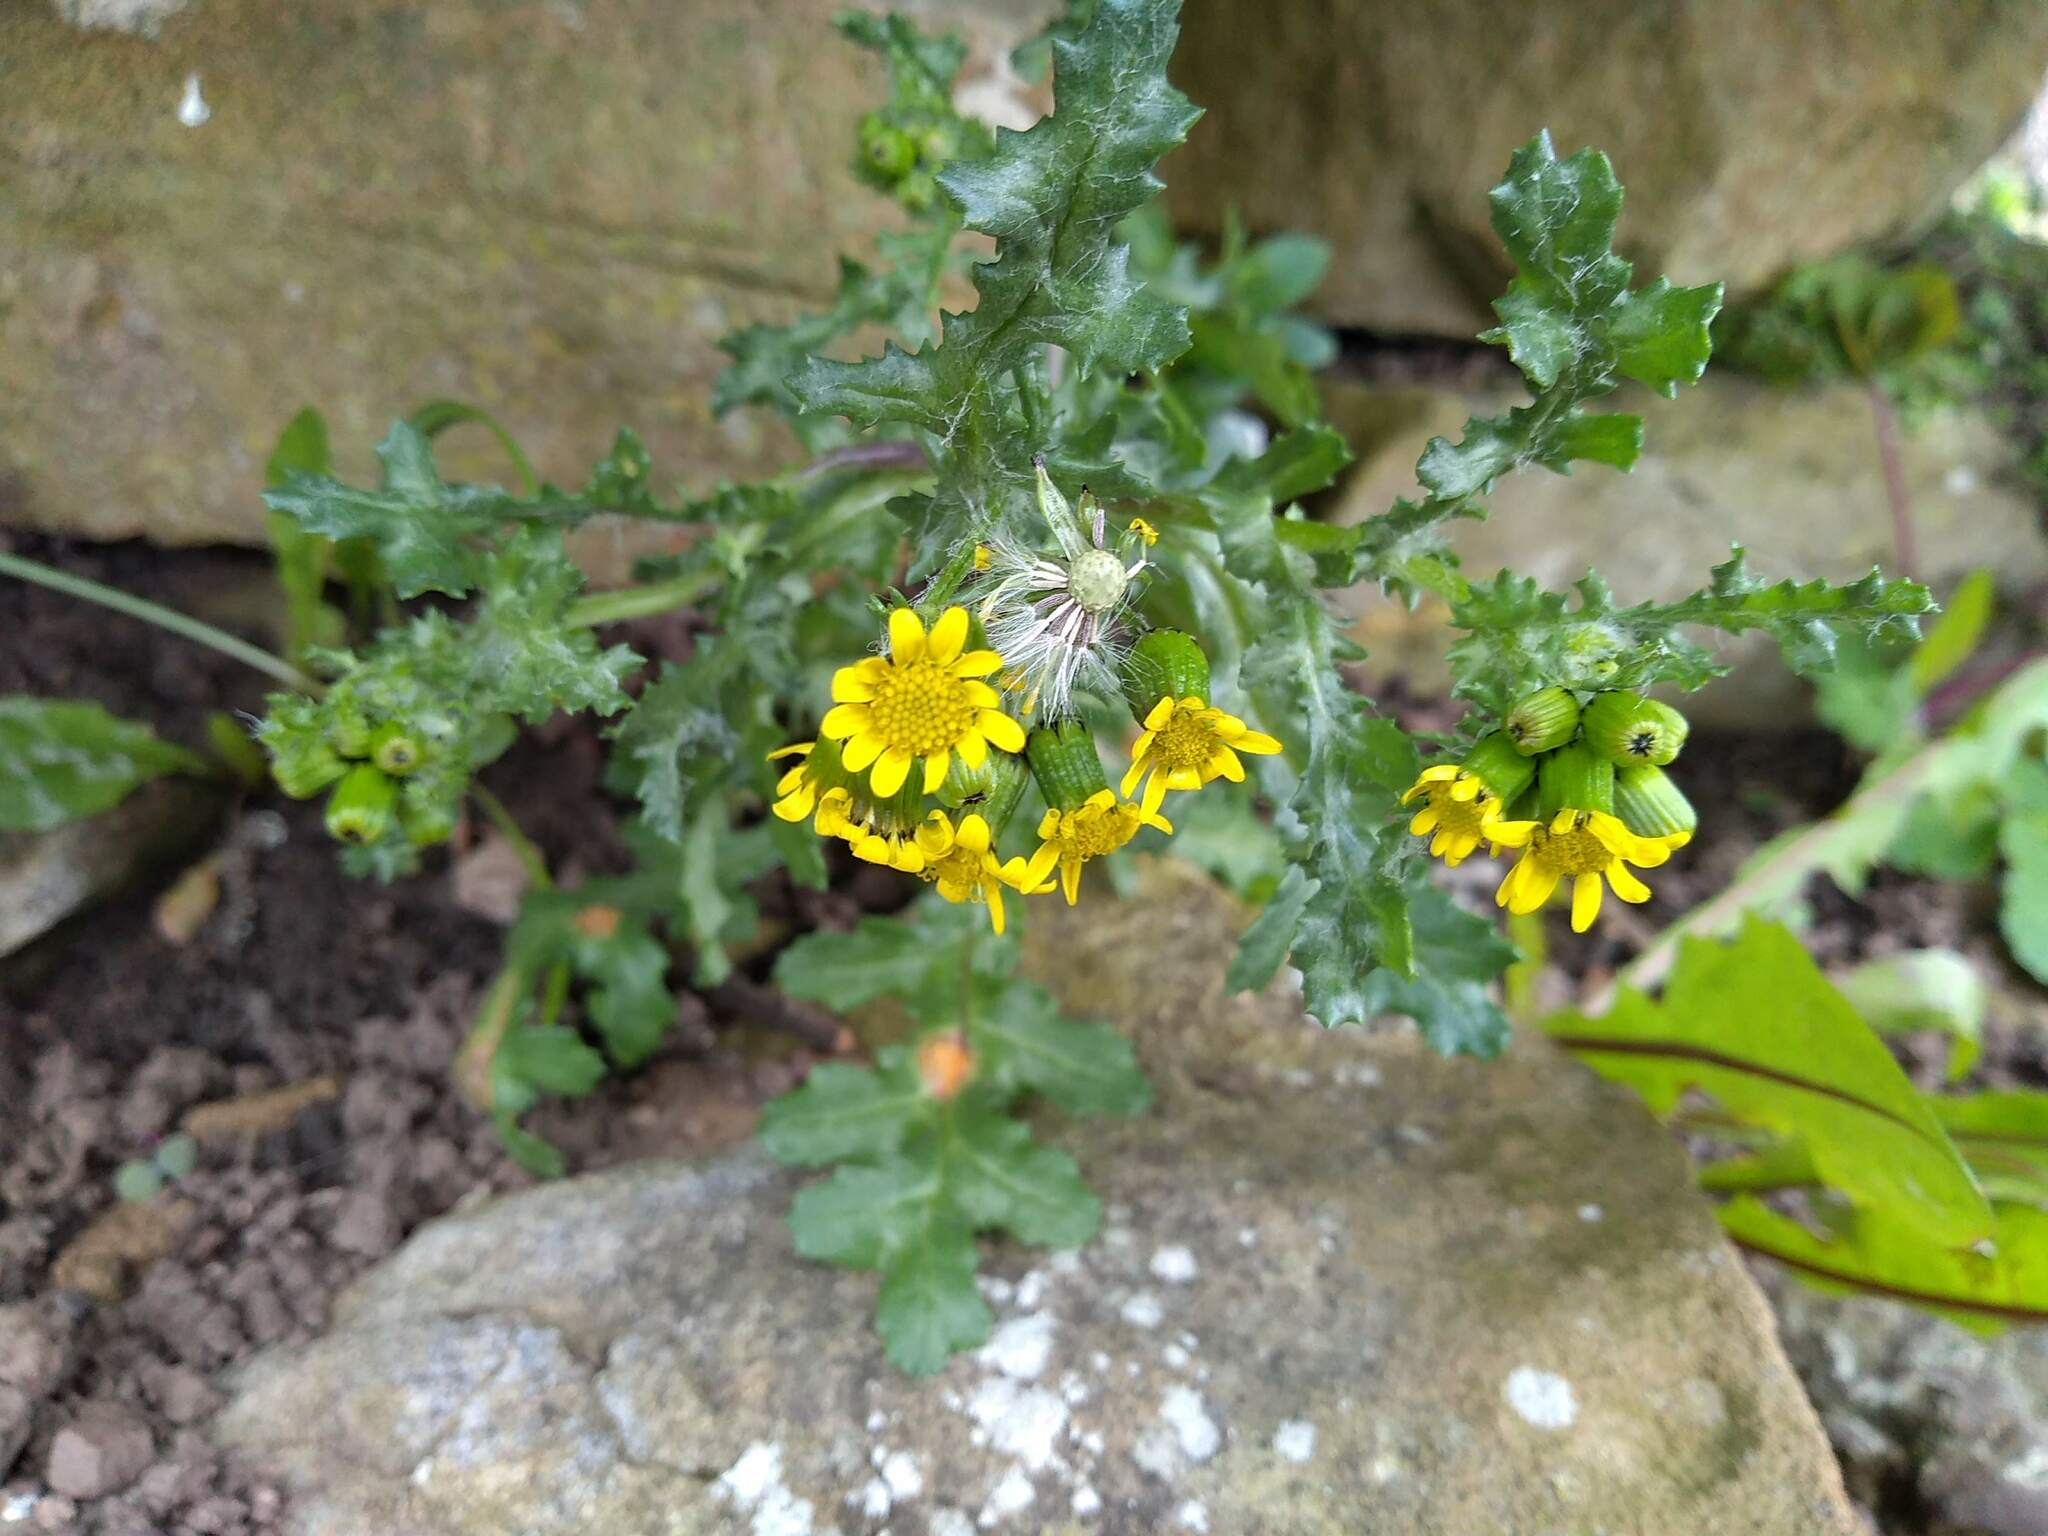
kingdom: Plantae
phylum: Tracheophyta
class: Magnoliopsida
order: Asterales
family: Asteraceae
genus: Senecio
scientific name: Senecio vulgaris
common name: Old-man-in-the-spring
